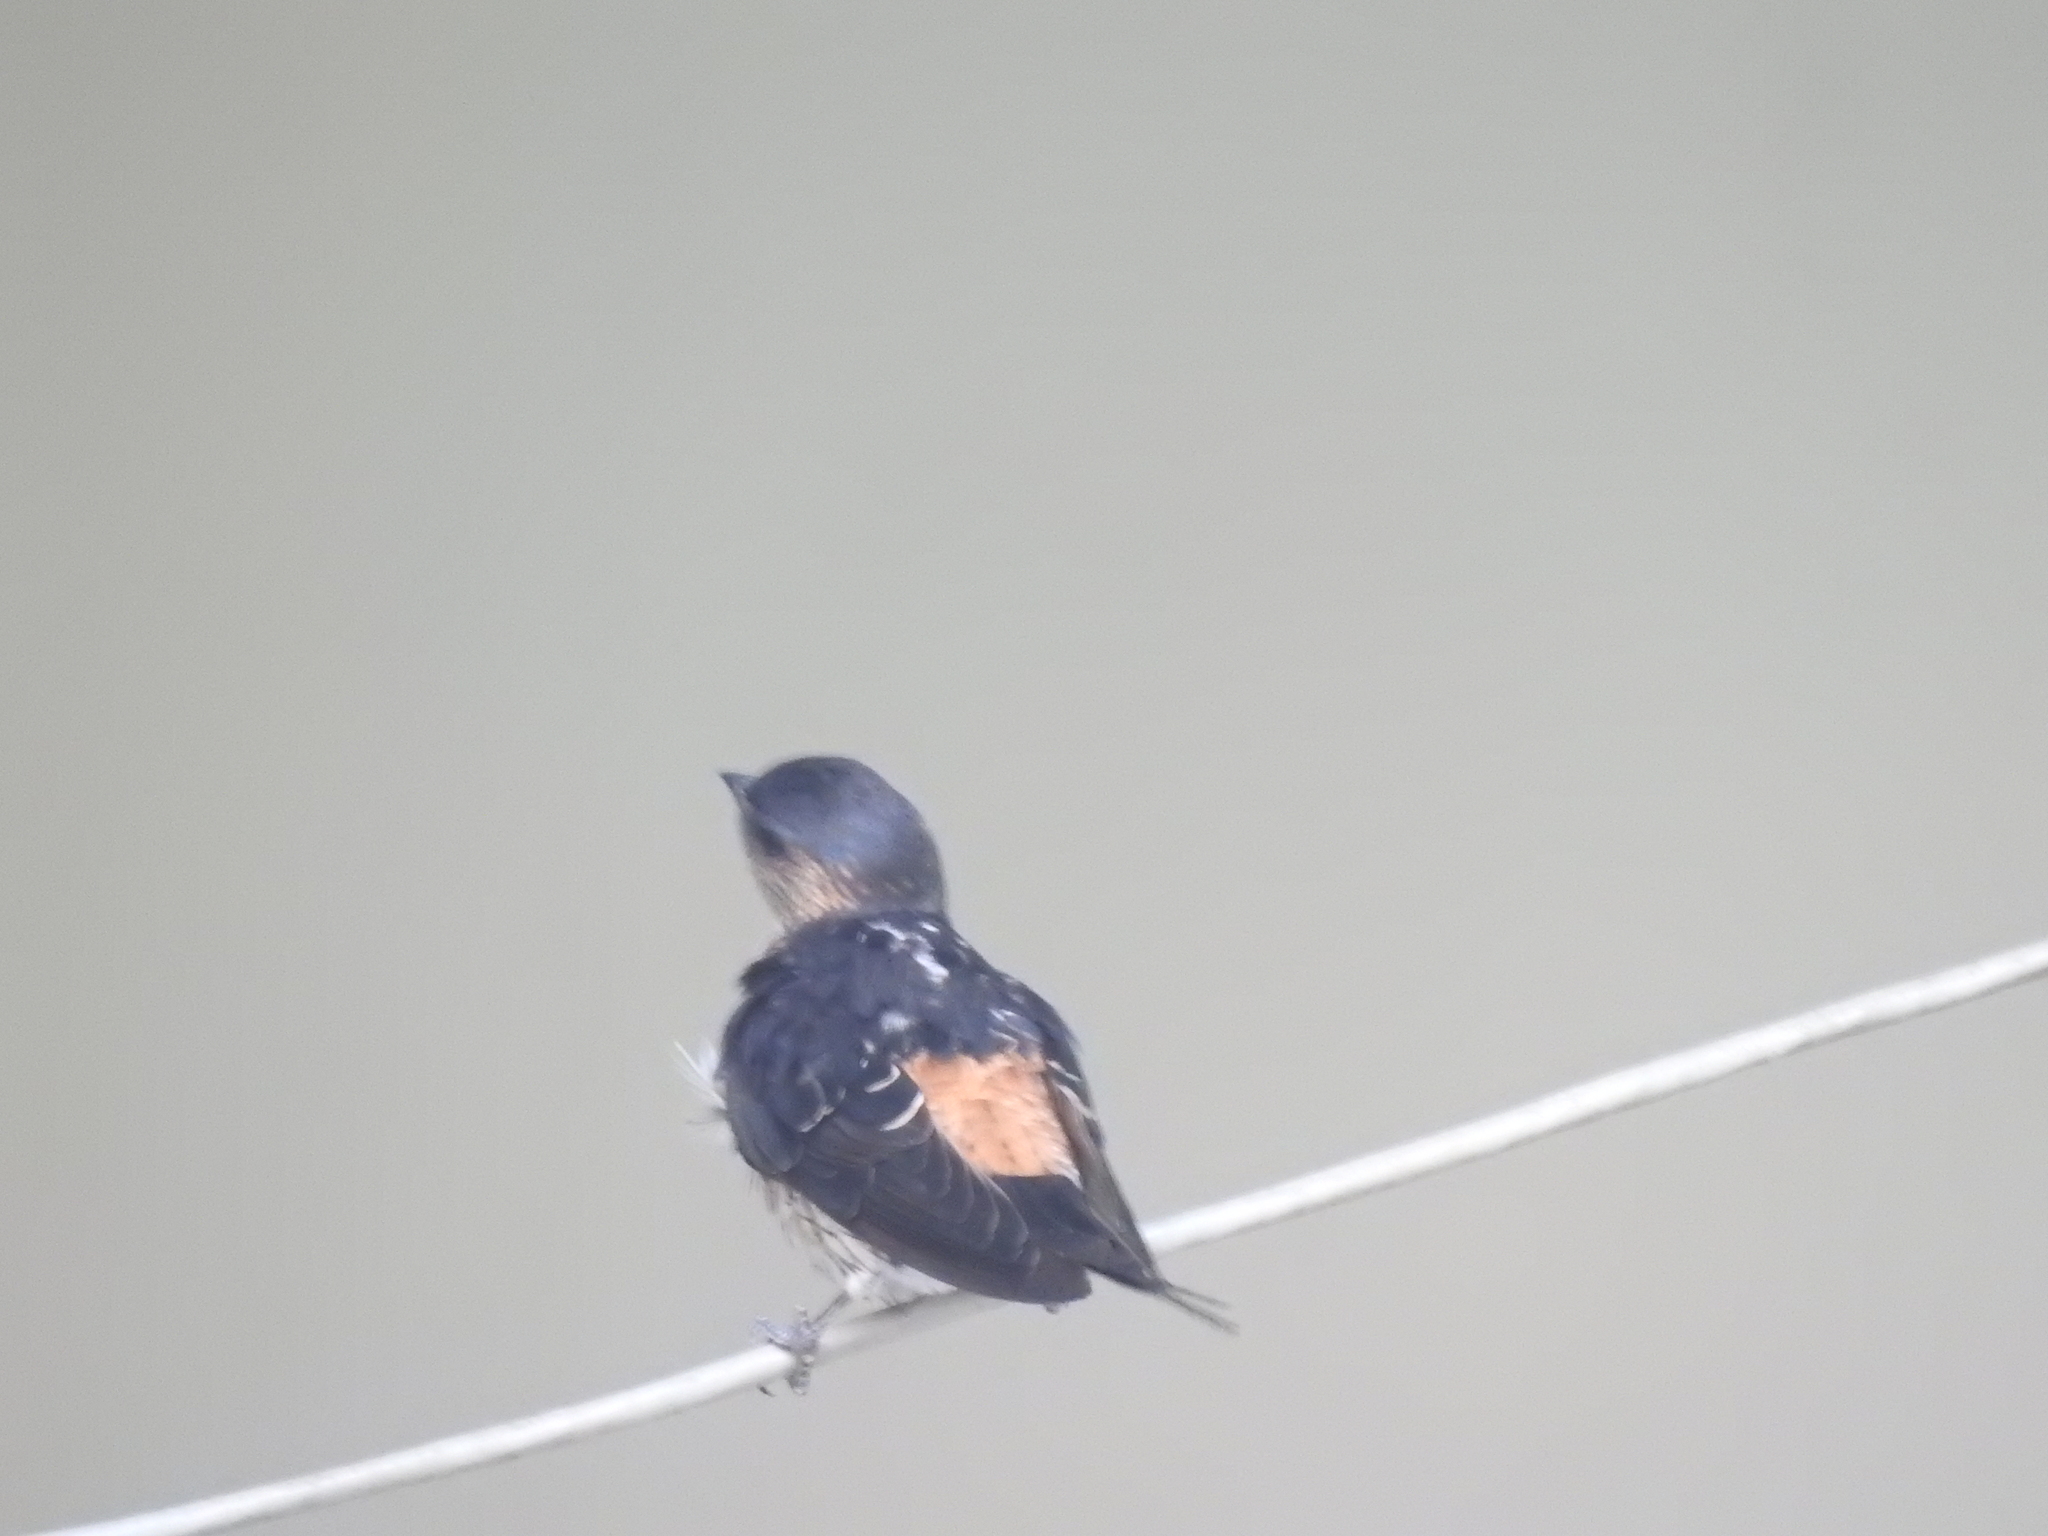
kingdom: Animalia
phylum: Chordata
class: Aves
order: Passeriformes
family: Hirundinidae
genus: Cecropis
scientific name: Cecropis daurica
